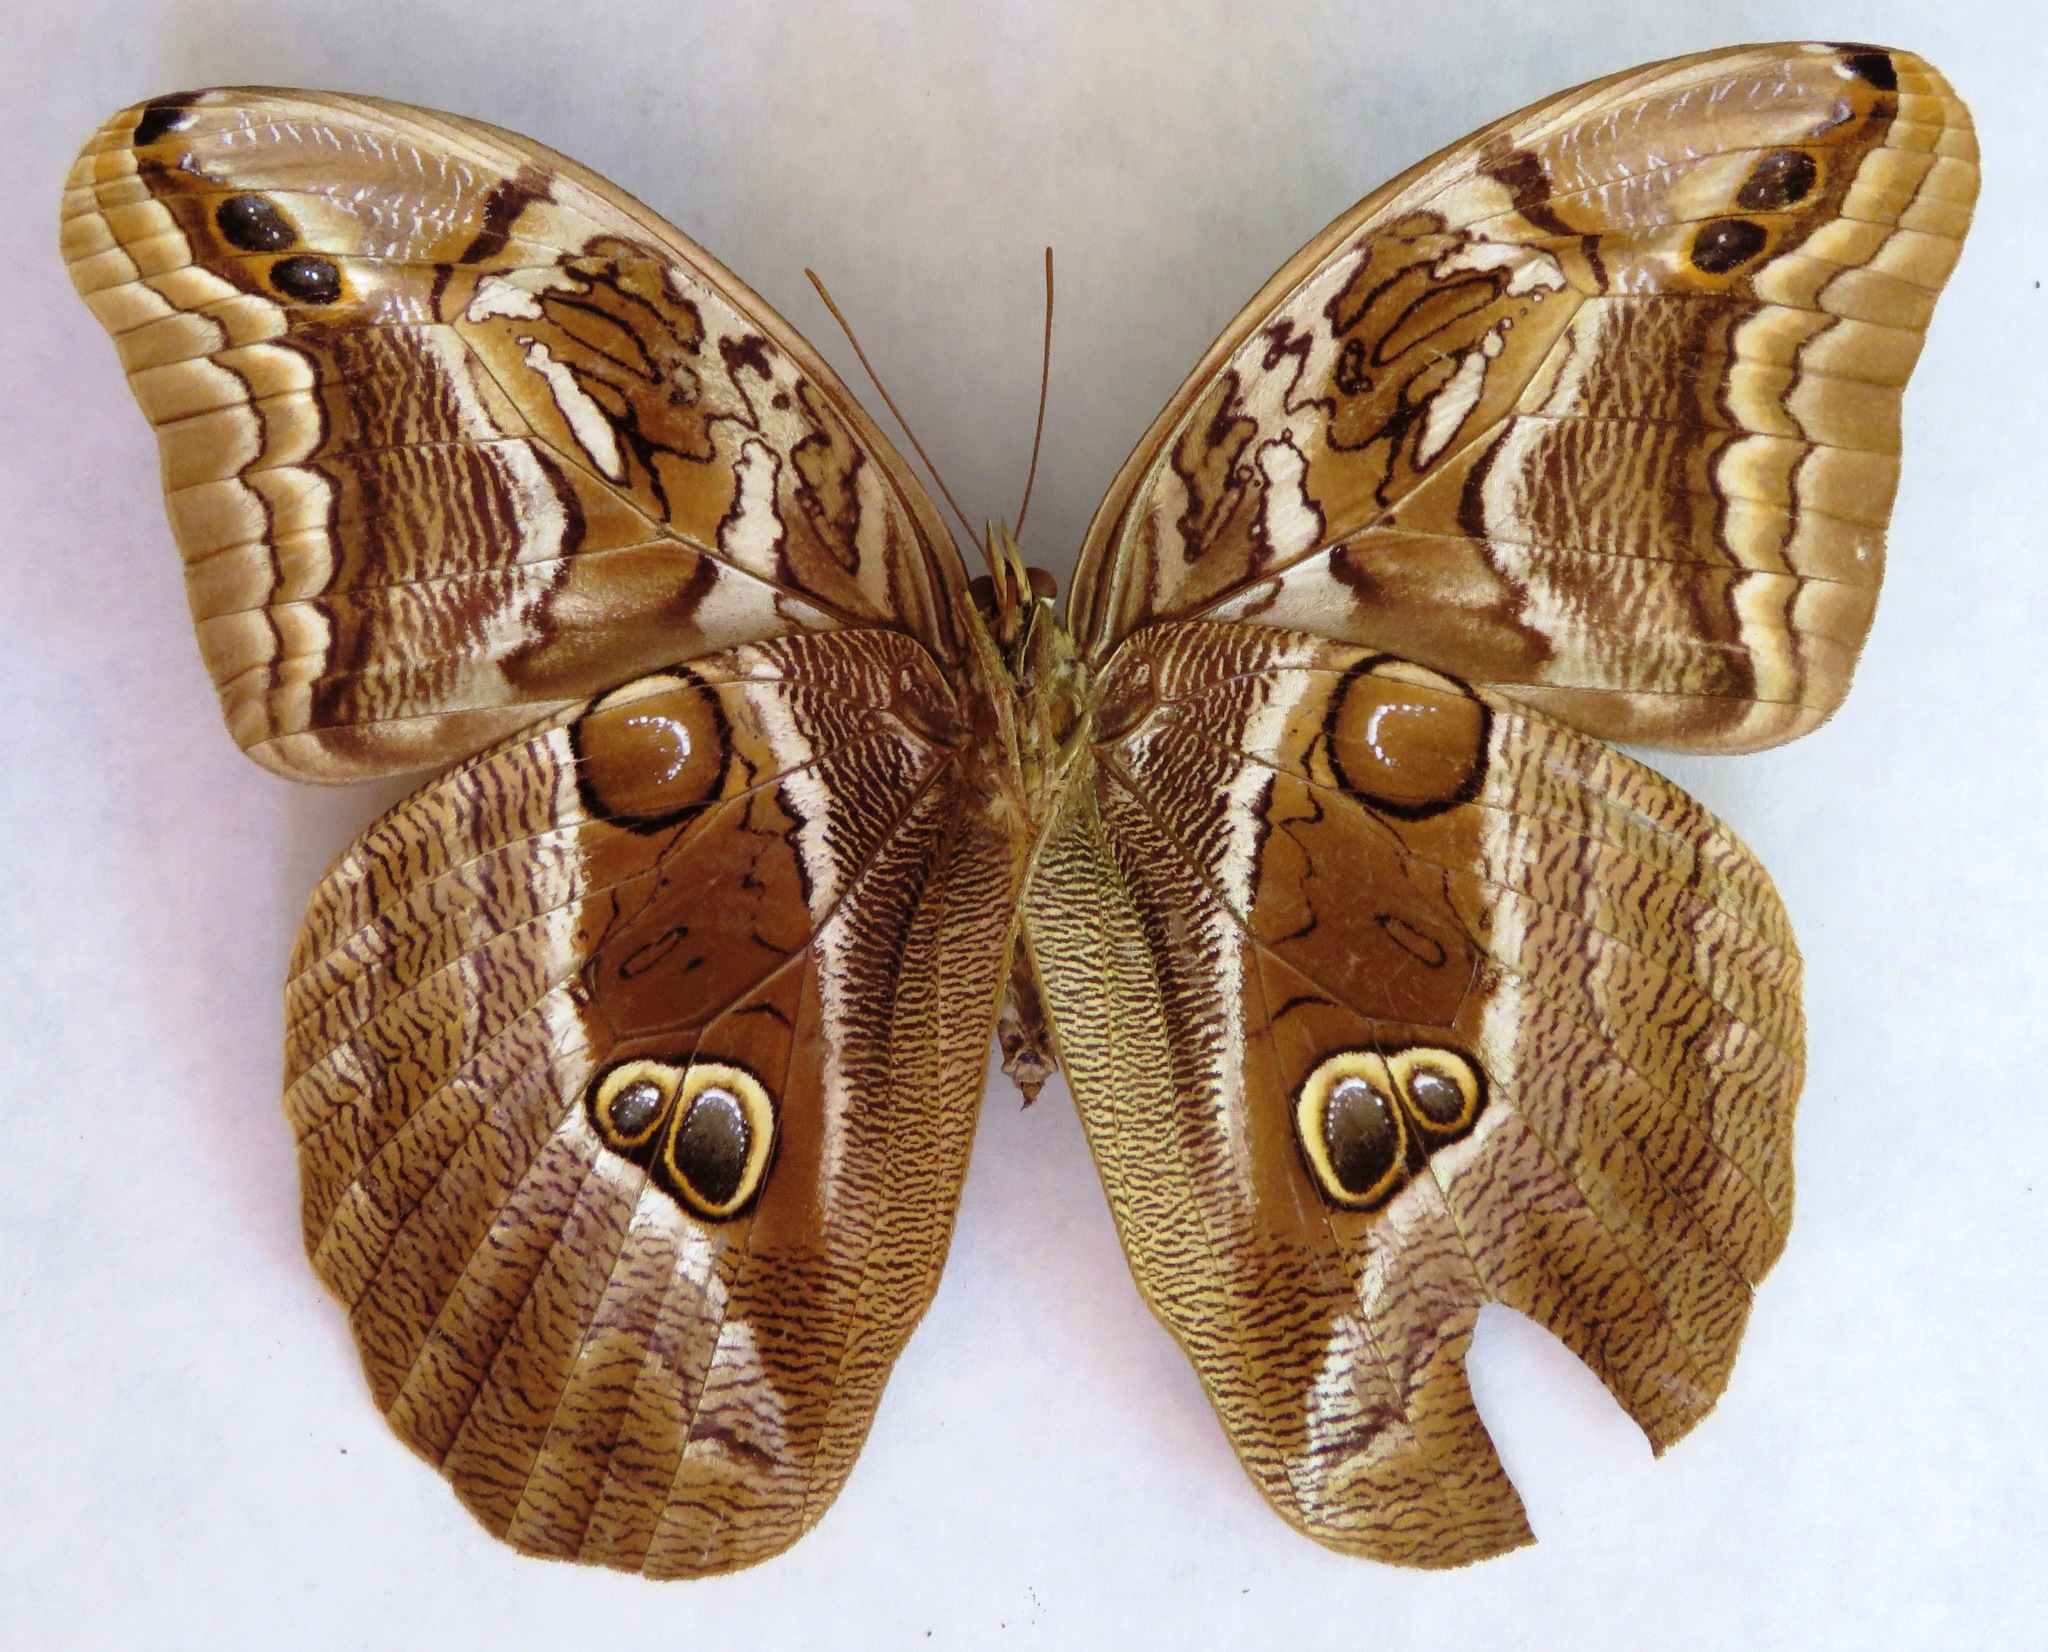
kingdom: Animalia
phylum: Arthropoda
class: Insecta
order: Lepidoptera
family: Nymphalidae
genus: Eryphanis
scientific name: Eryphanis aesacus
